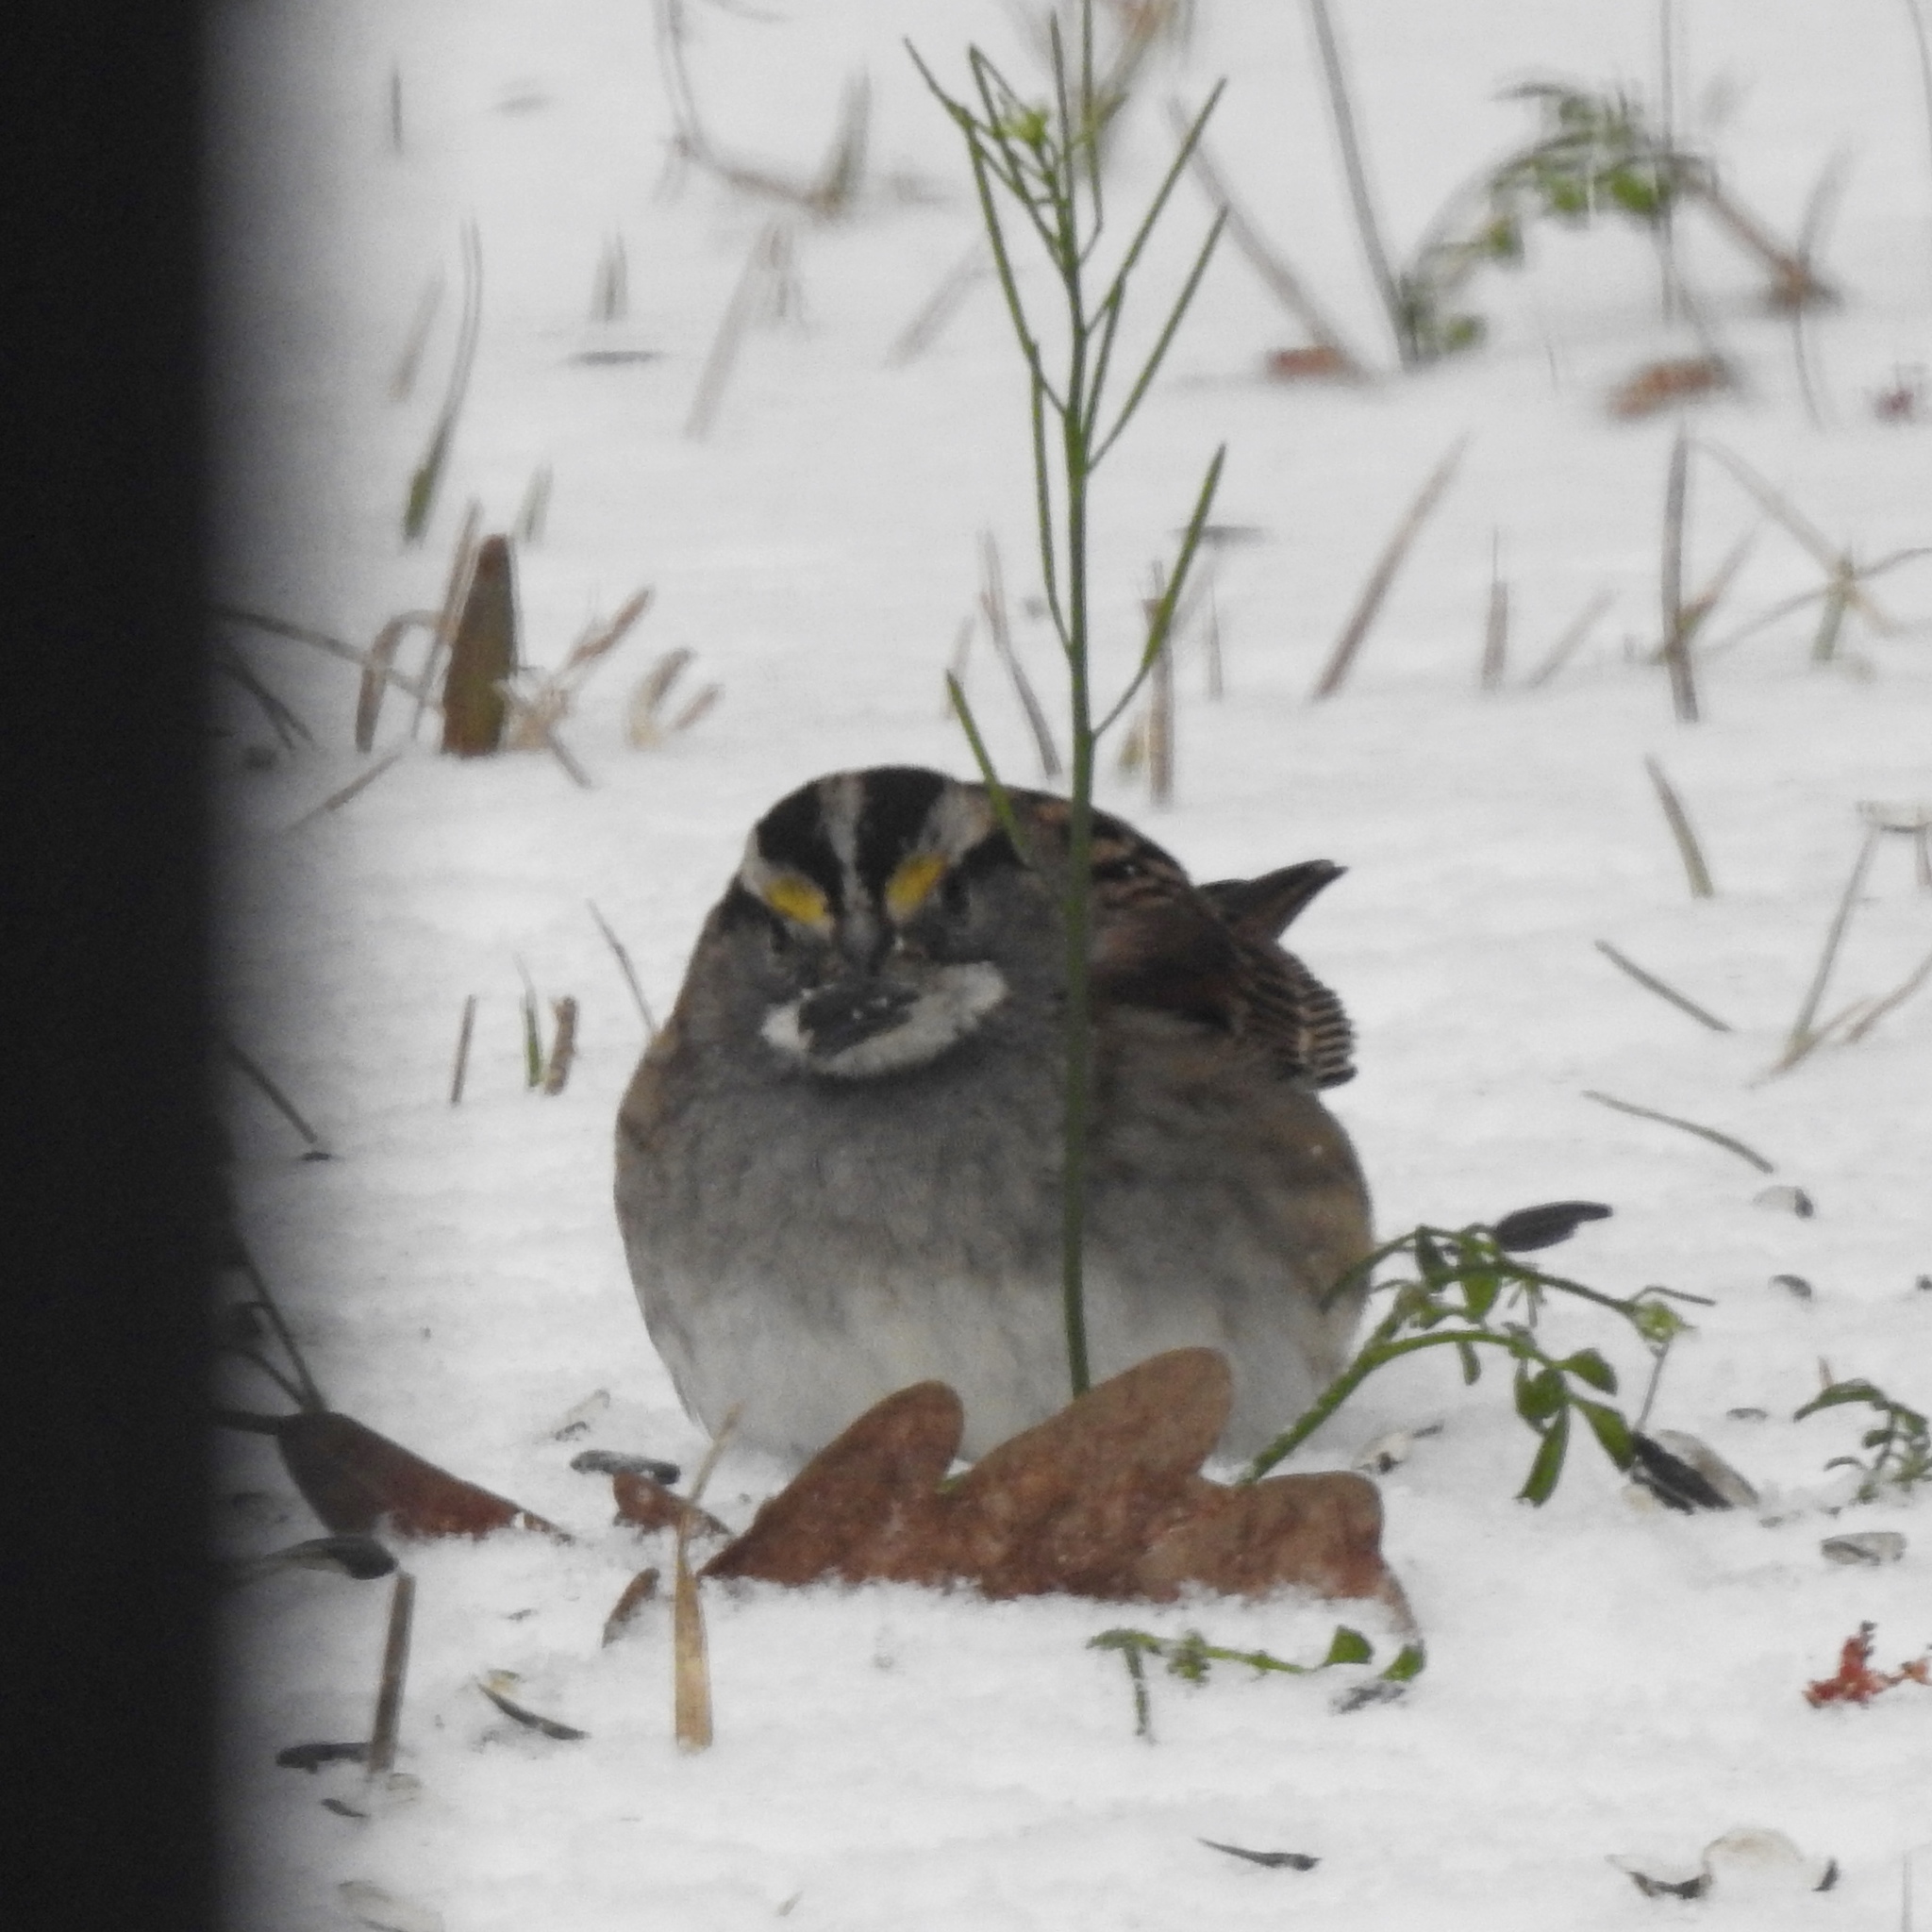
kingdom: Animalia
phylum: Chordata
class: Aves
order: Passeriformes
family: Passerellidae
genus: Zonotrichia
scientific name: Zonotrichia albicollis
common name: White-throated sparrow
